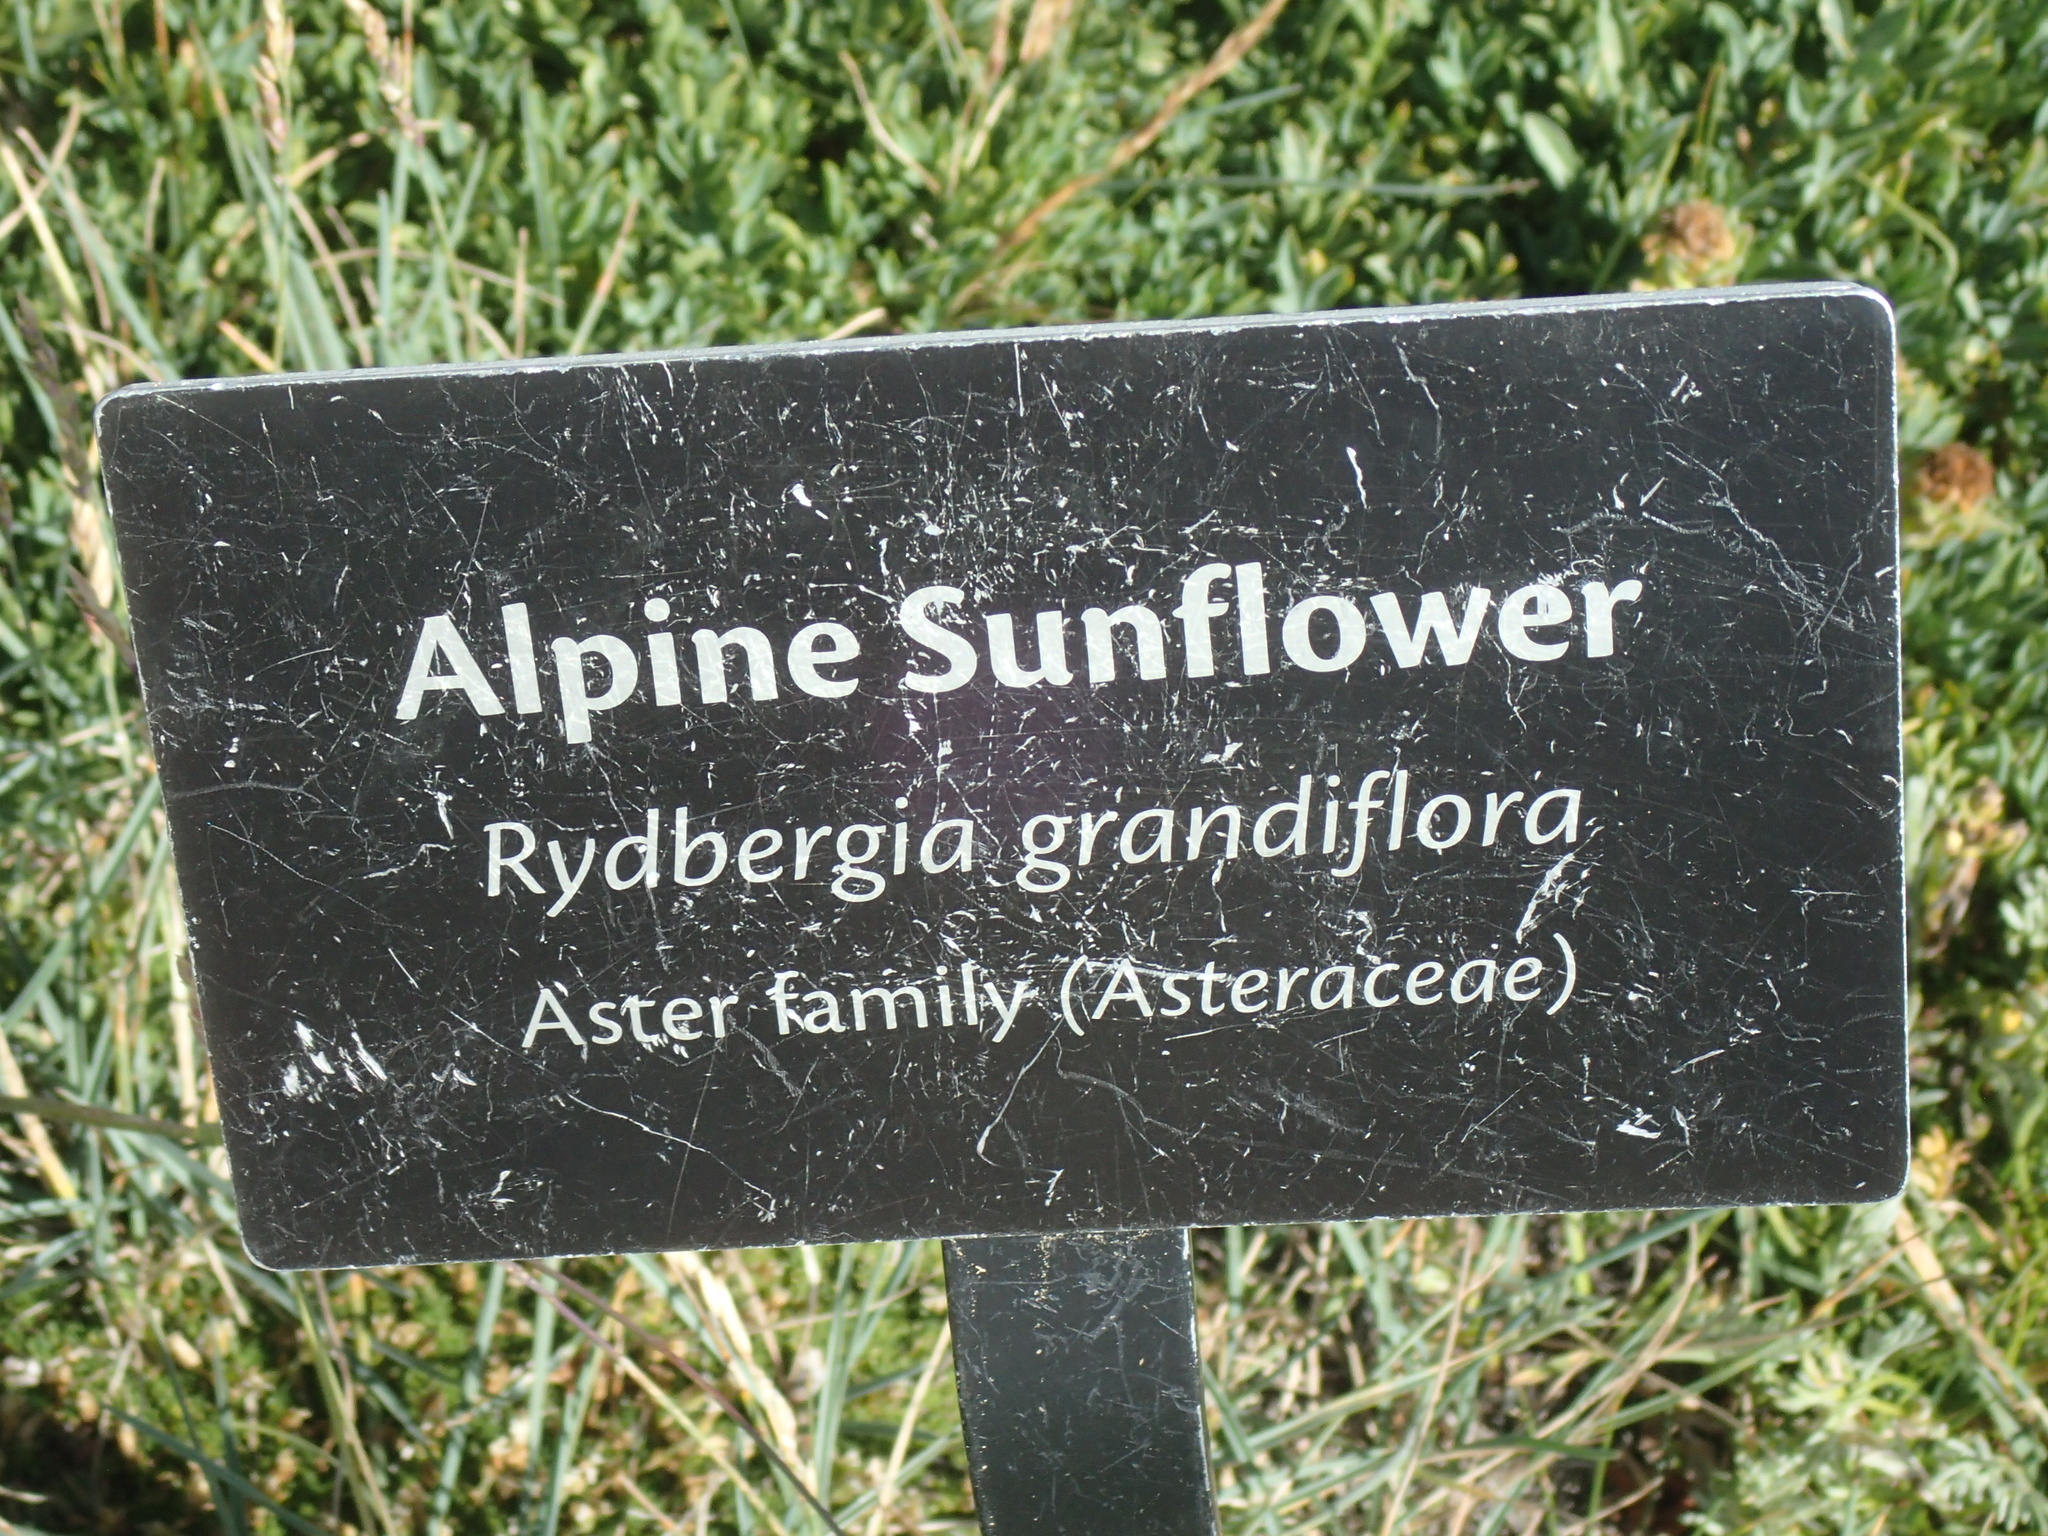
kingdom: Plantae
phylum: Tracheophyta
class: Magnoliopsida
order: Asterales
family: Asteraceae
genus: Hymenoxys
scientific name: Hymenoxys grandiflora
